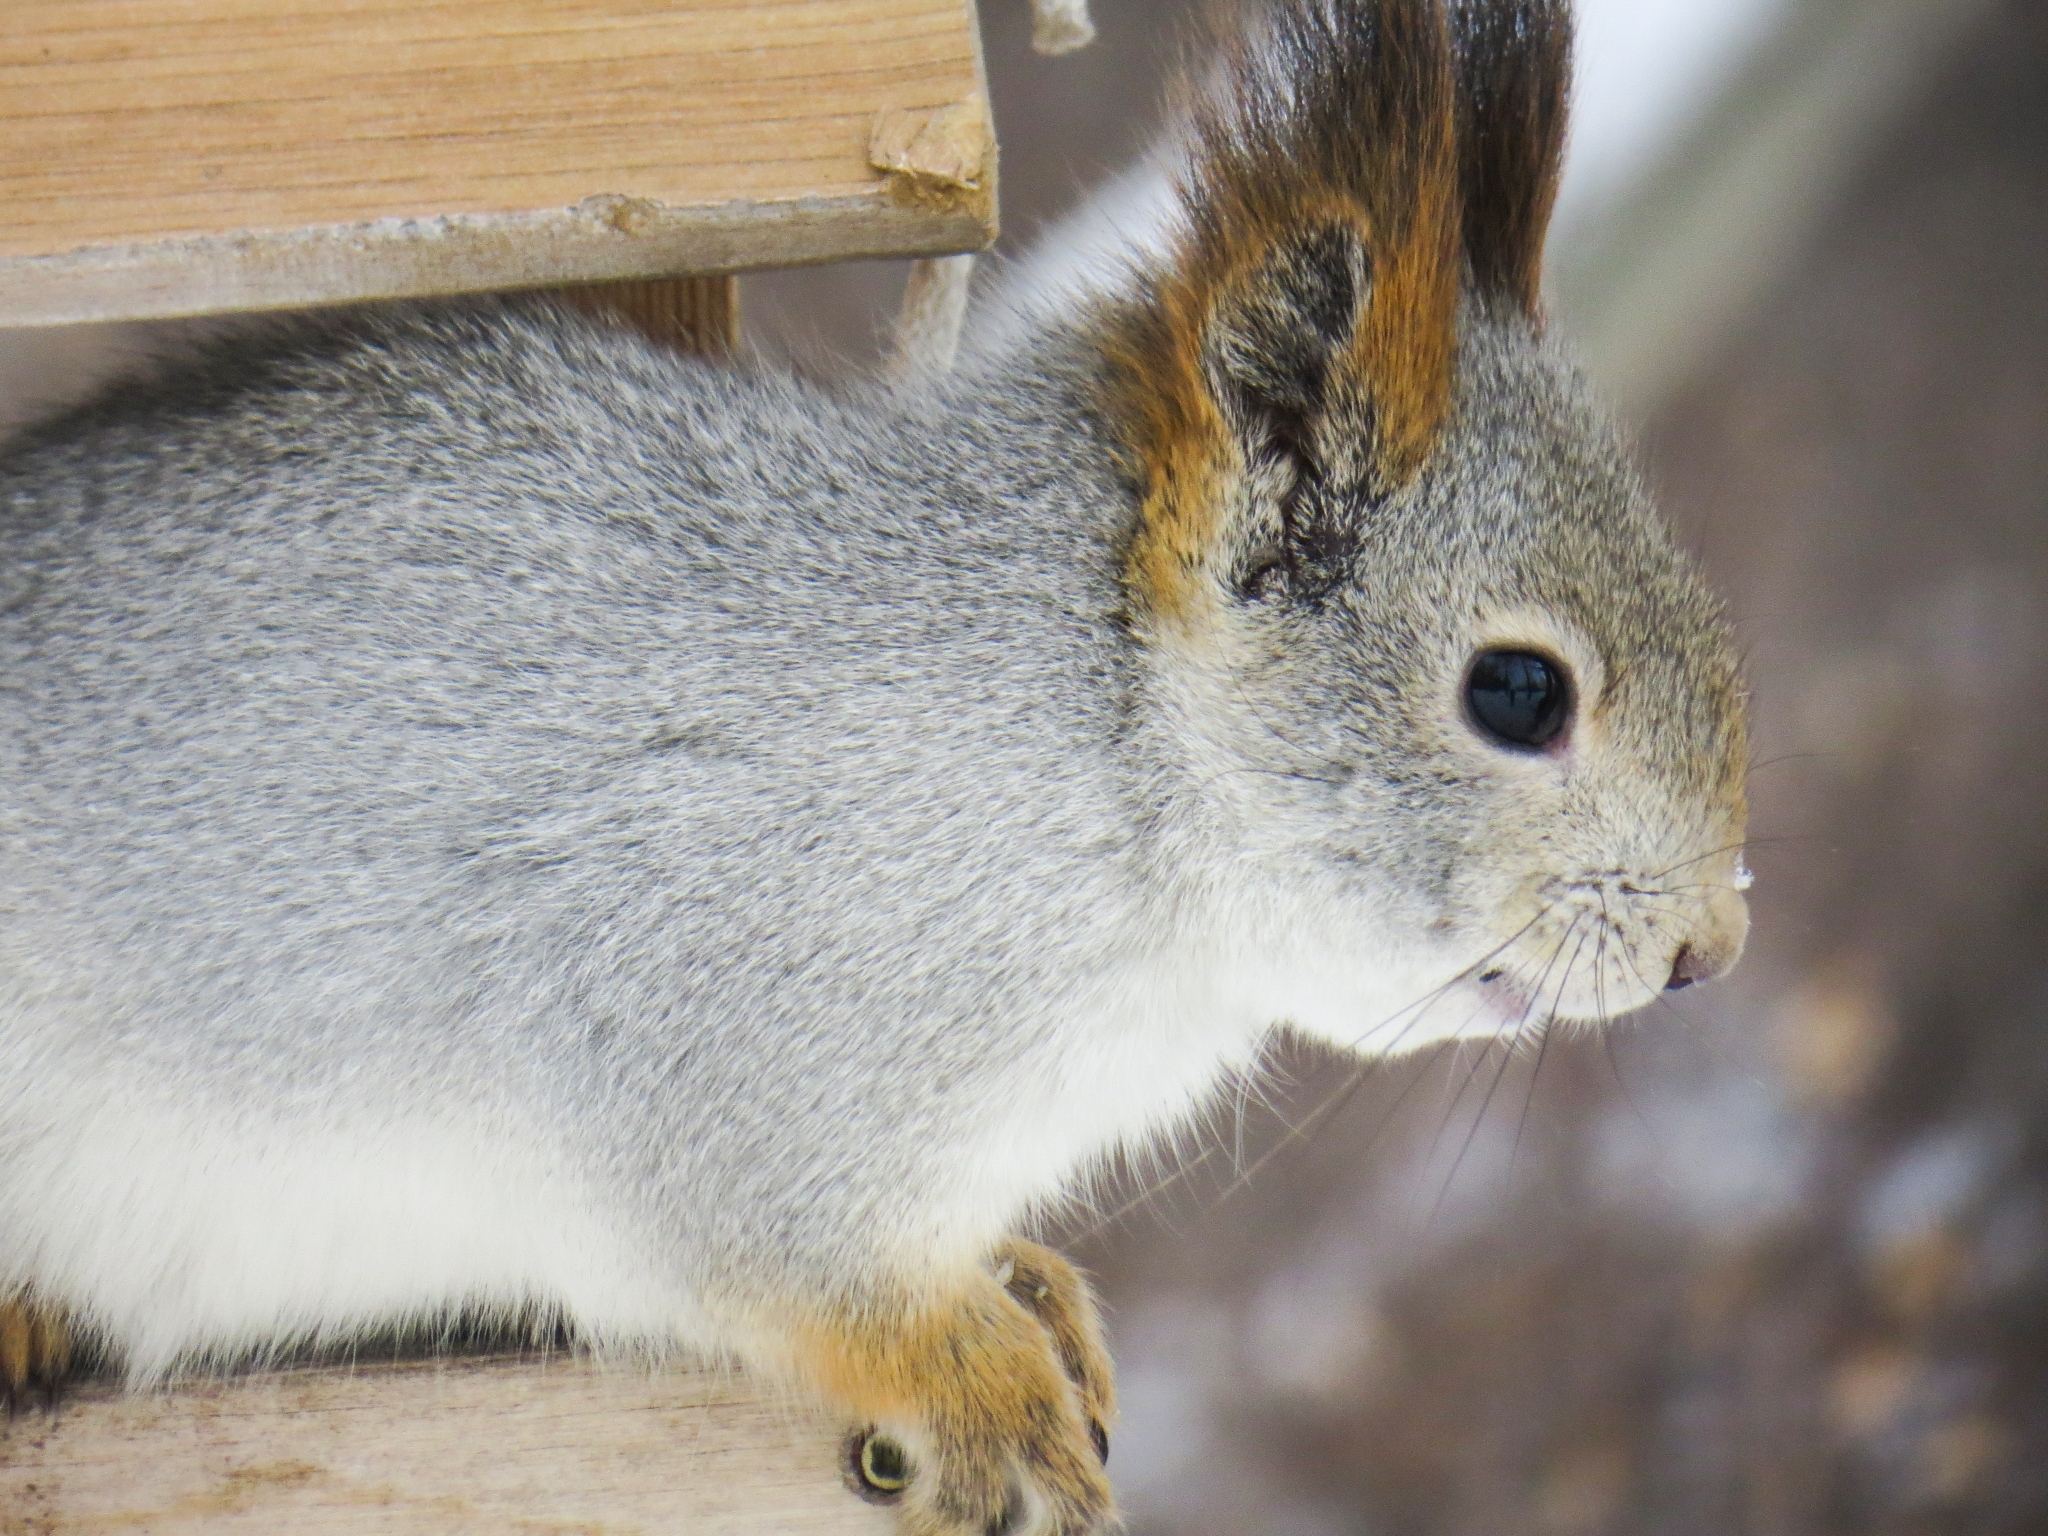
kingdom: Animalia
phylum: Chordata
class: Mammalia
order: Rodentia
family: Sciuridae
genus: Sciurus
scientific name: Sciurus vulgaris
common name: Eurasian red squirrel
